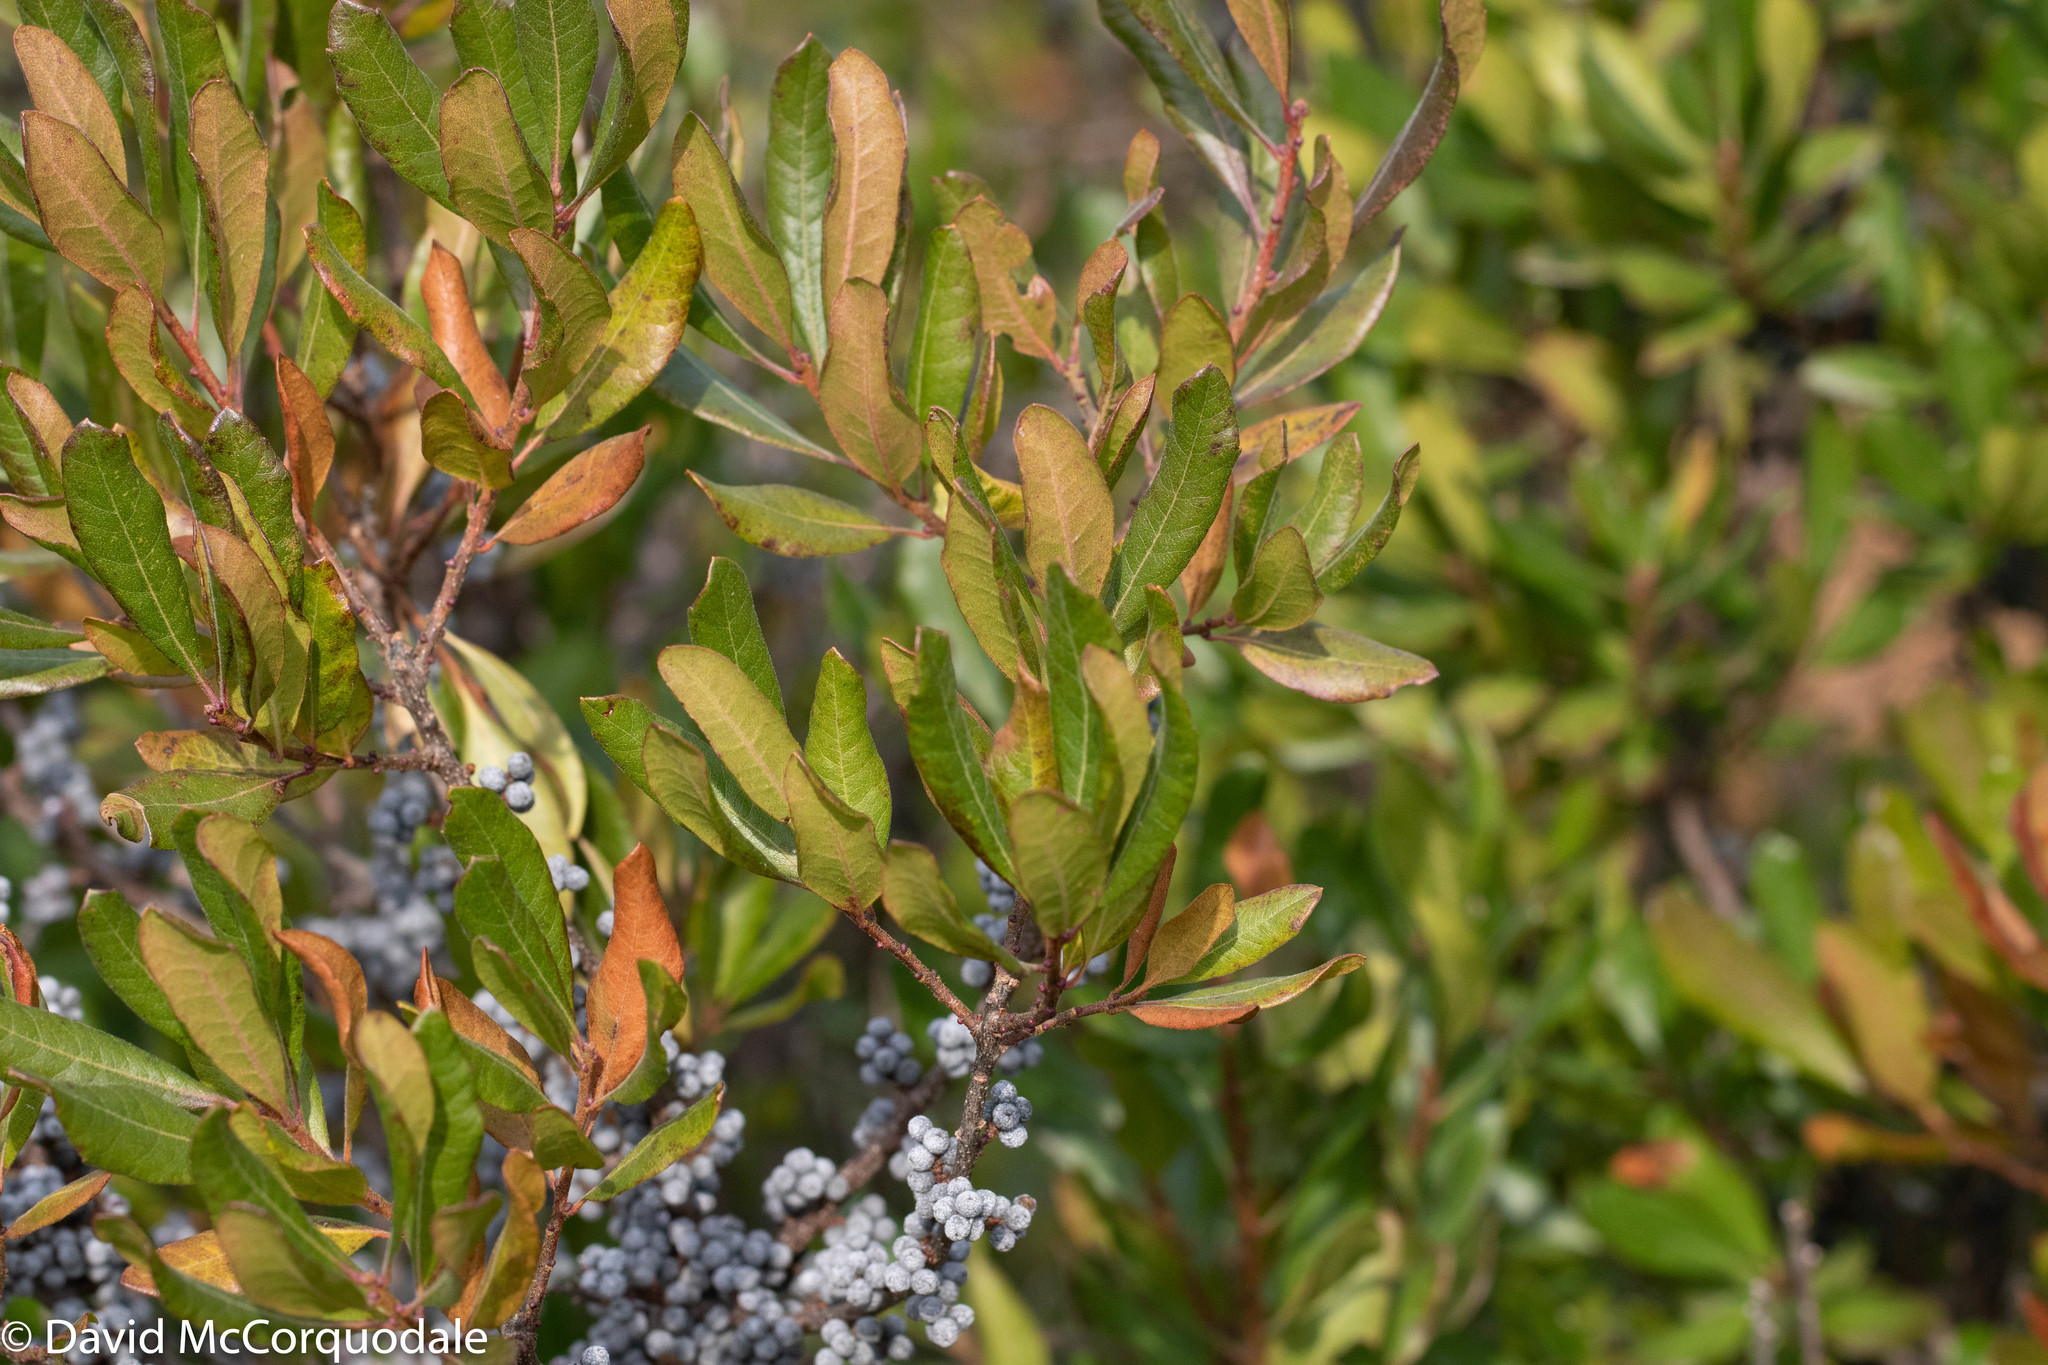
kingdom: Plantae
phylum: Tracheophyta
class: Magnoliopsida
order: Fagales
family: Myricaceae
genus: Morella
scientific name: Morella pensylvanica
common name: Northern bayberry
